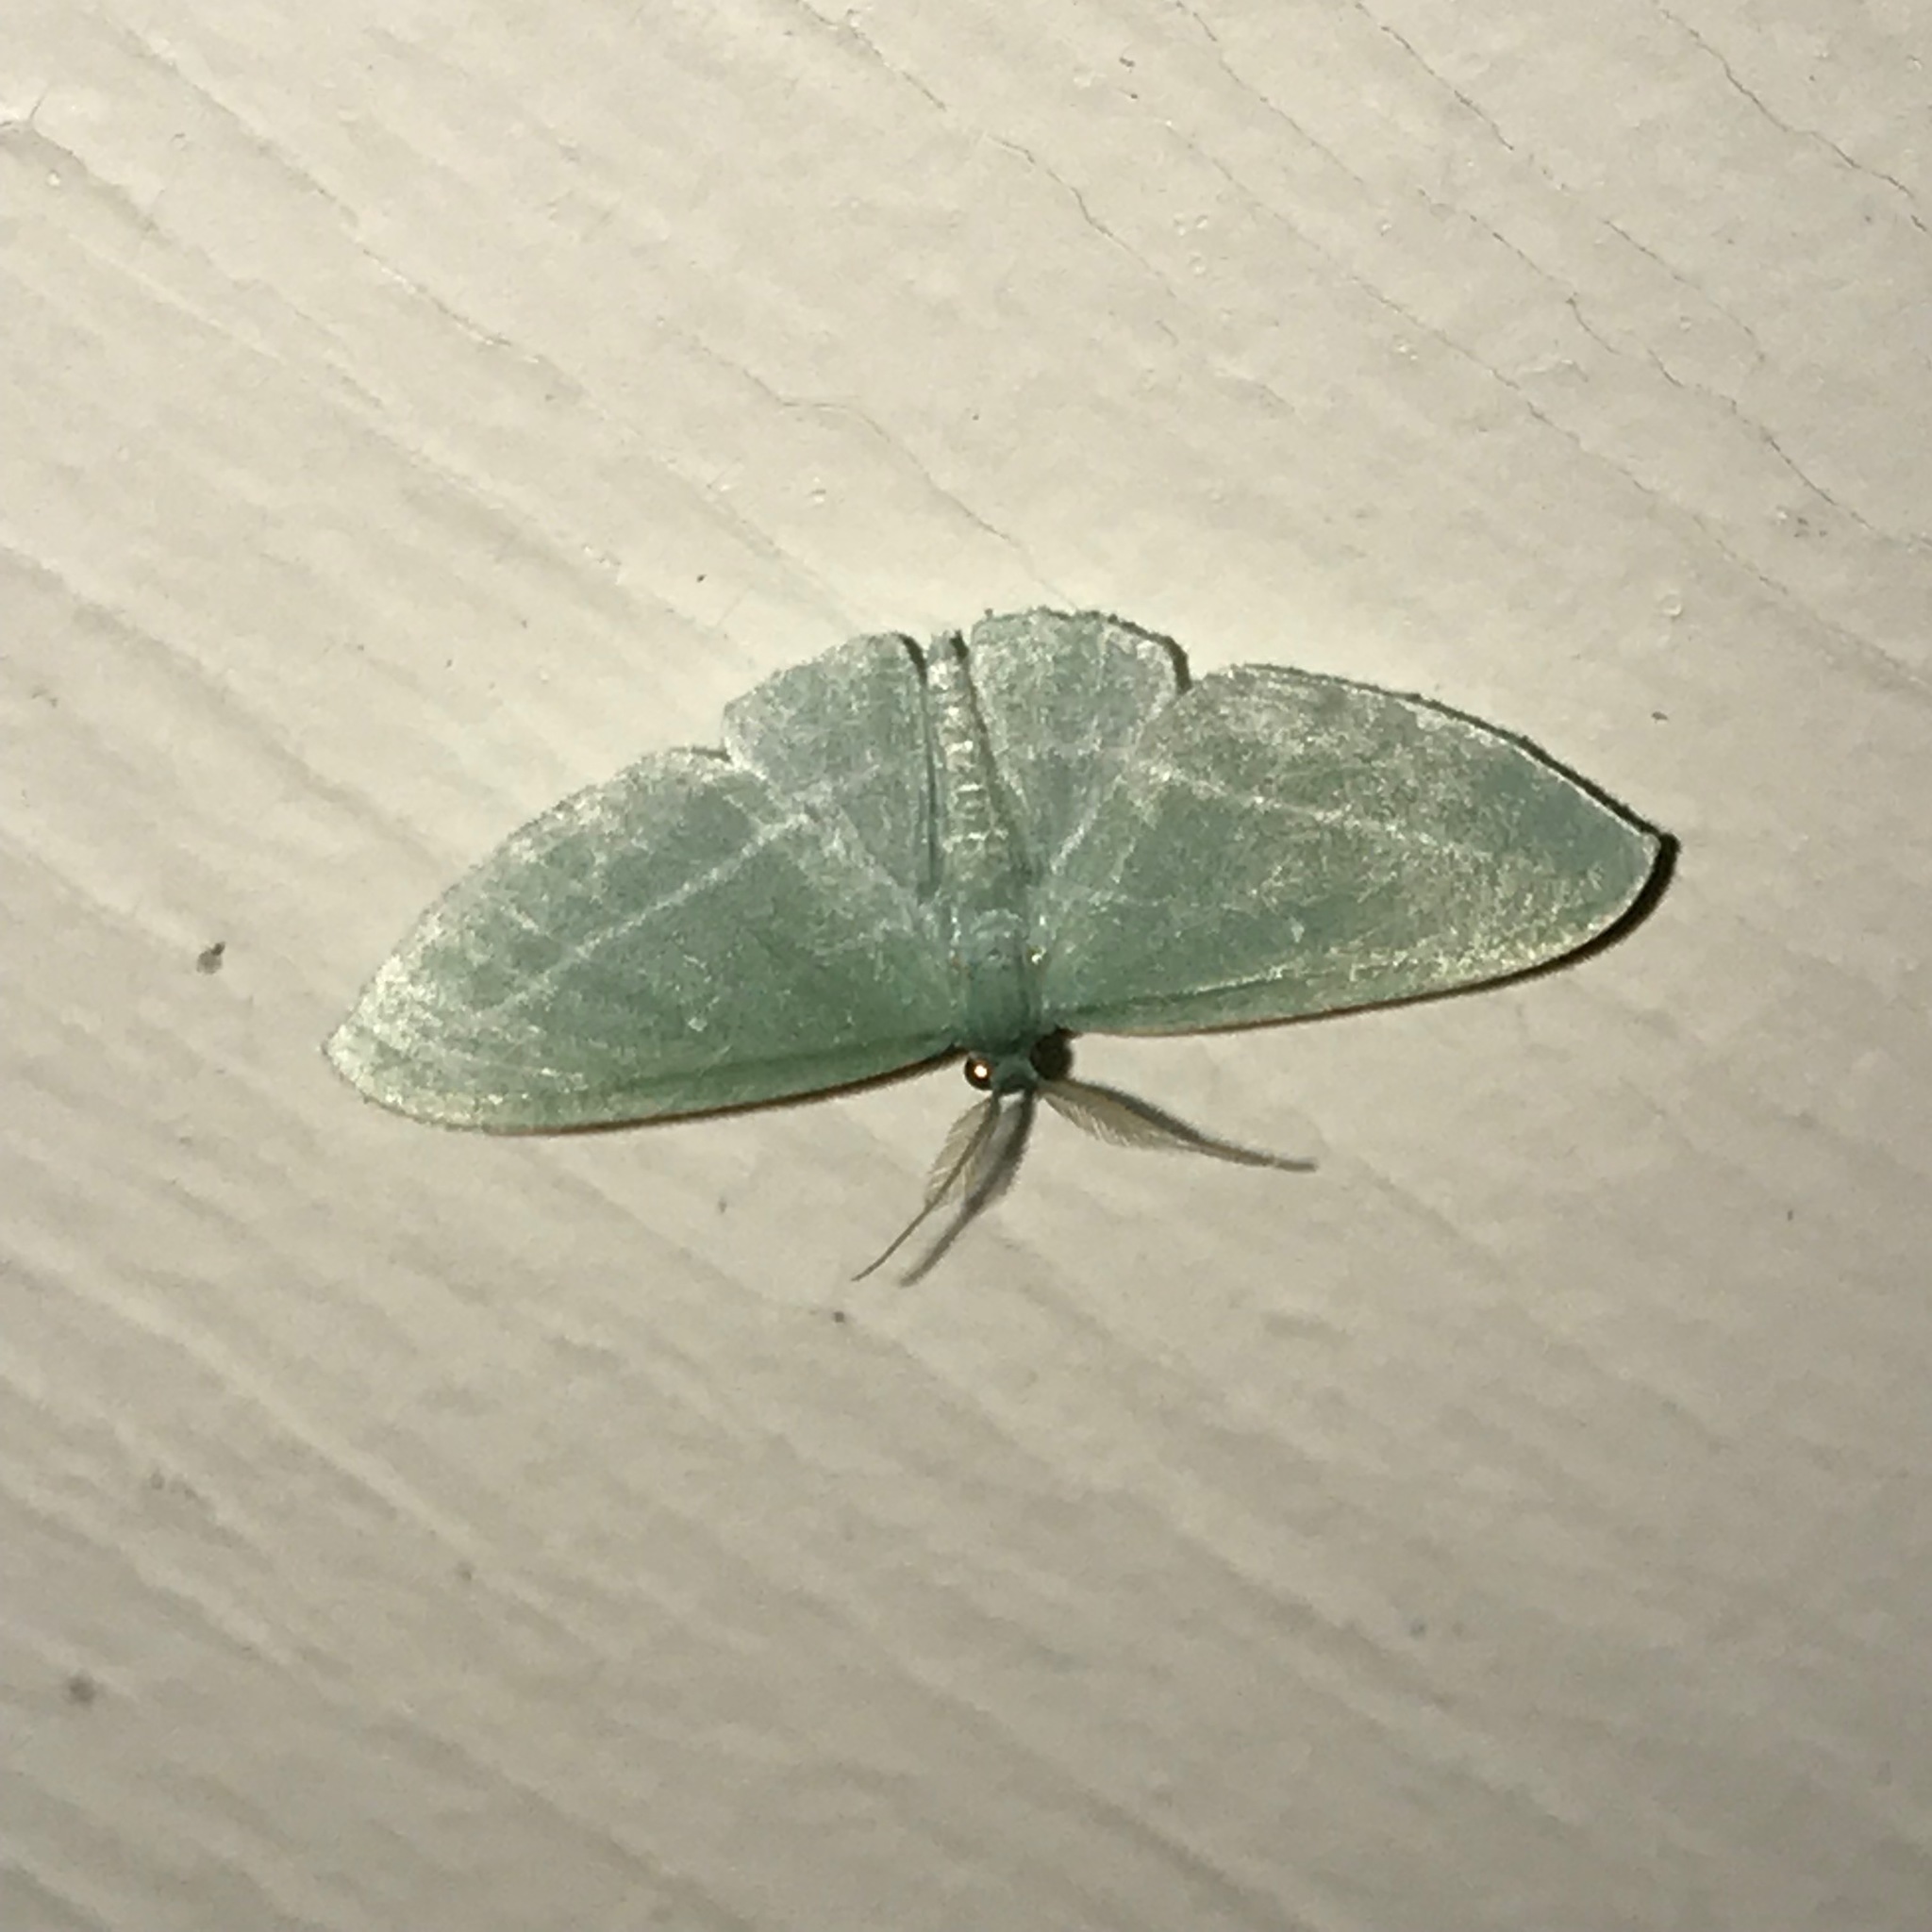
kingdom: Animalia
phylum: Arthropoda
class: Insecta
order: Lepidoptera
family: Geometridae
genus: Dyspteris
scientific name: Dyspteris abortivaria
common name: Bad-wing
